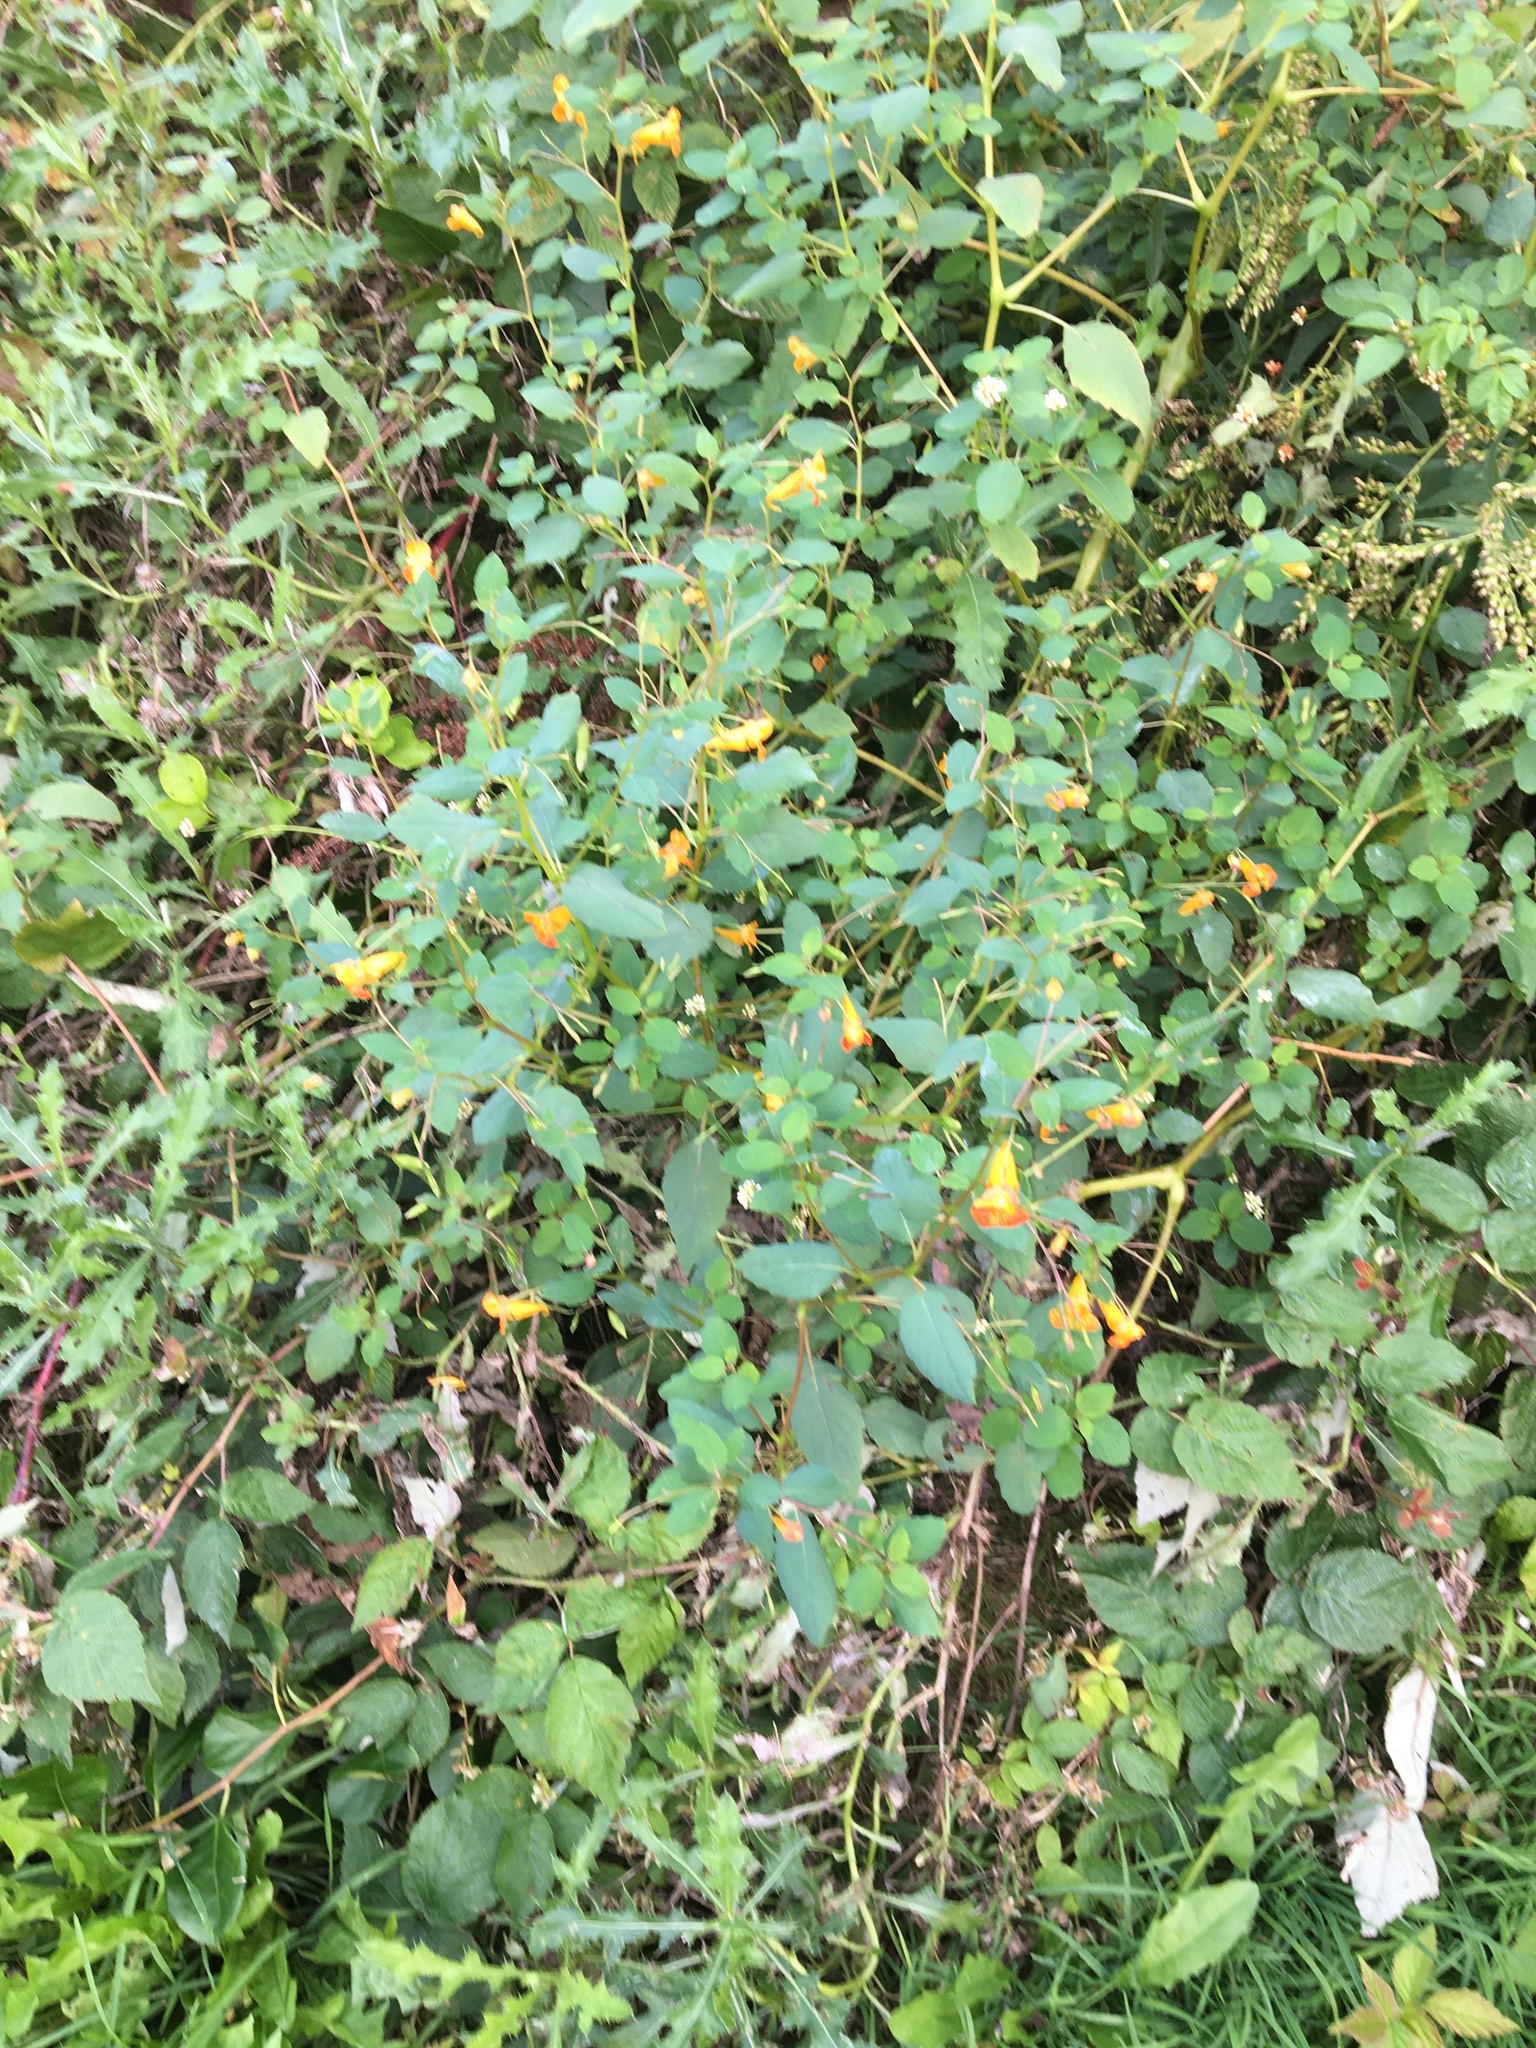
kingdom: Plantae
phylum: Tracheophyta
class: Magnoliopsida
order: Ericales
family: Balsaminaceae
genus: Impatiens
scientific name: Impatiens capensis
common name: Orange balsam
